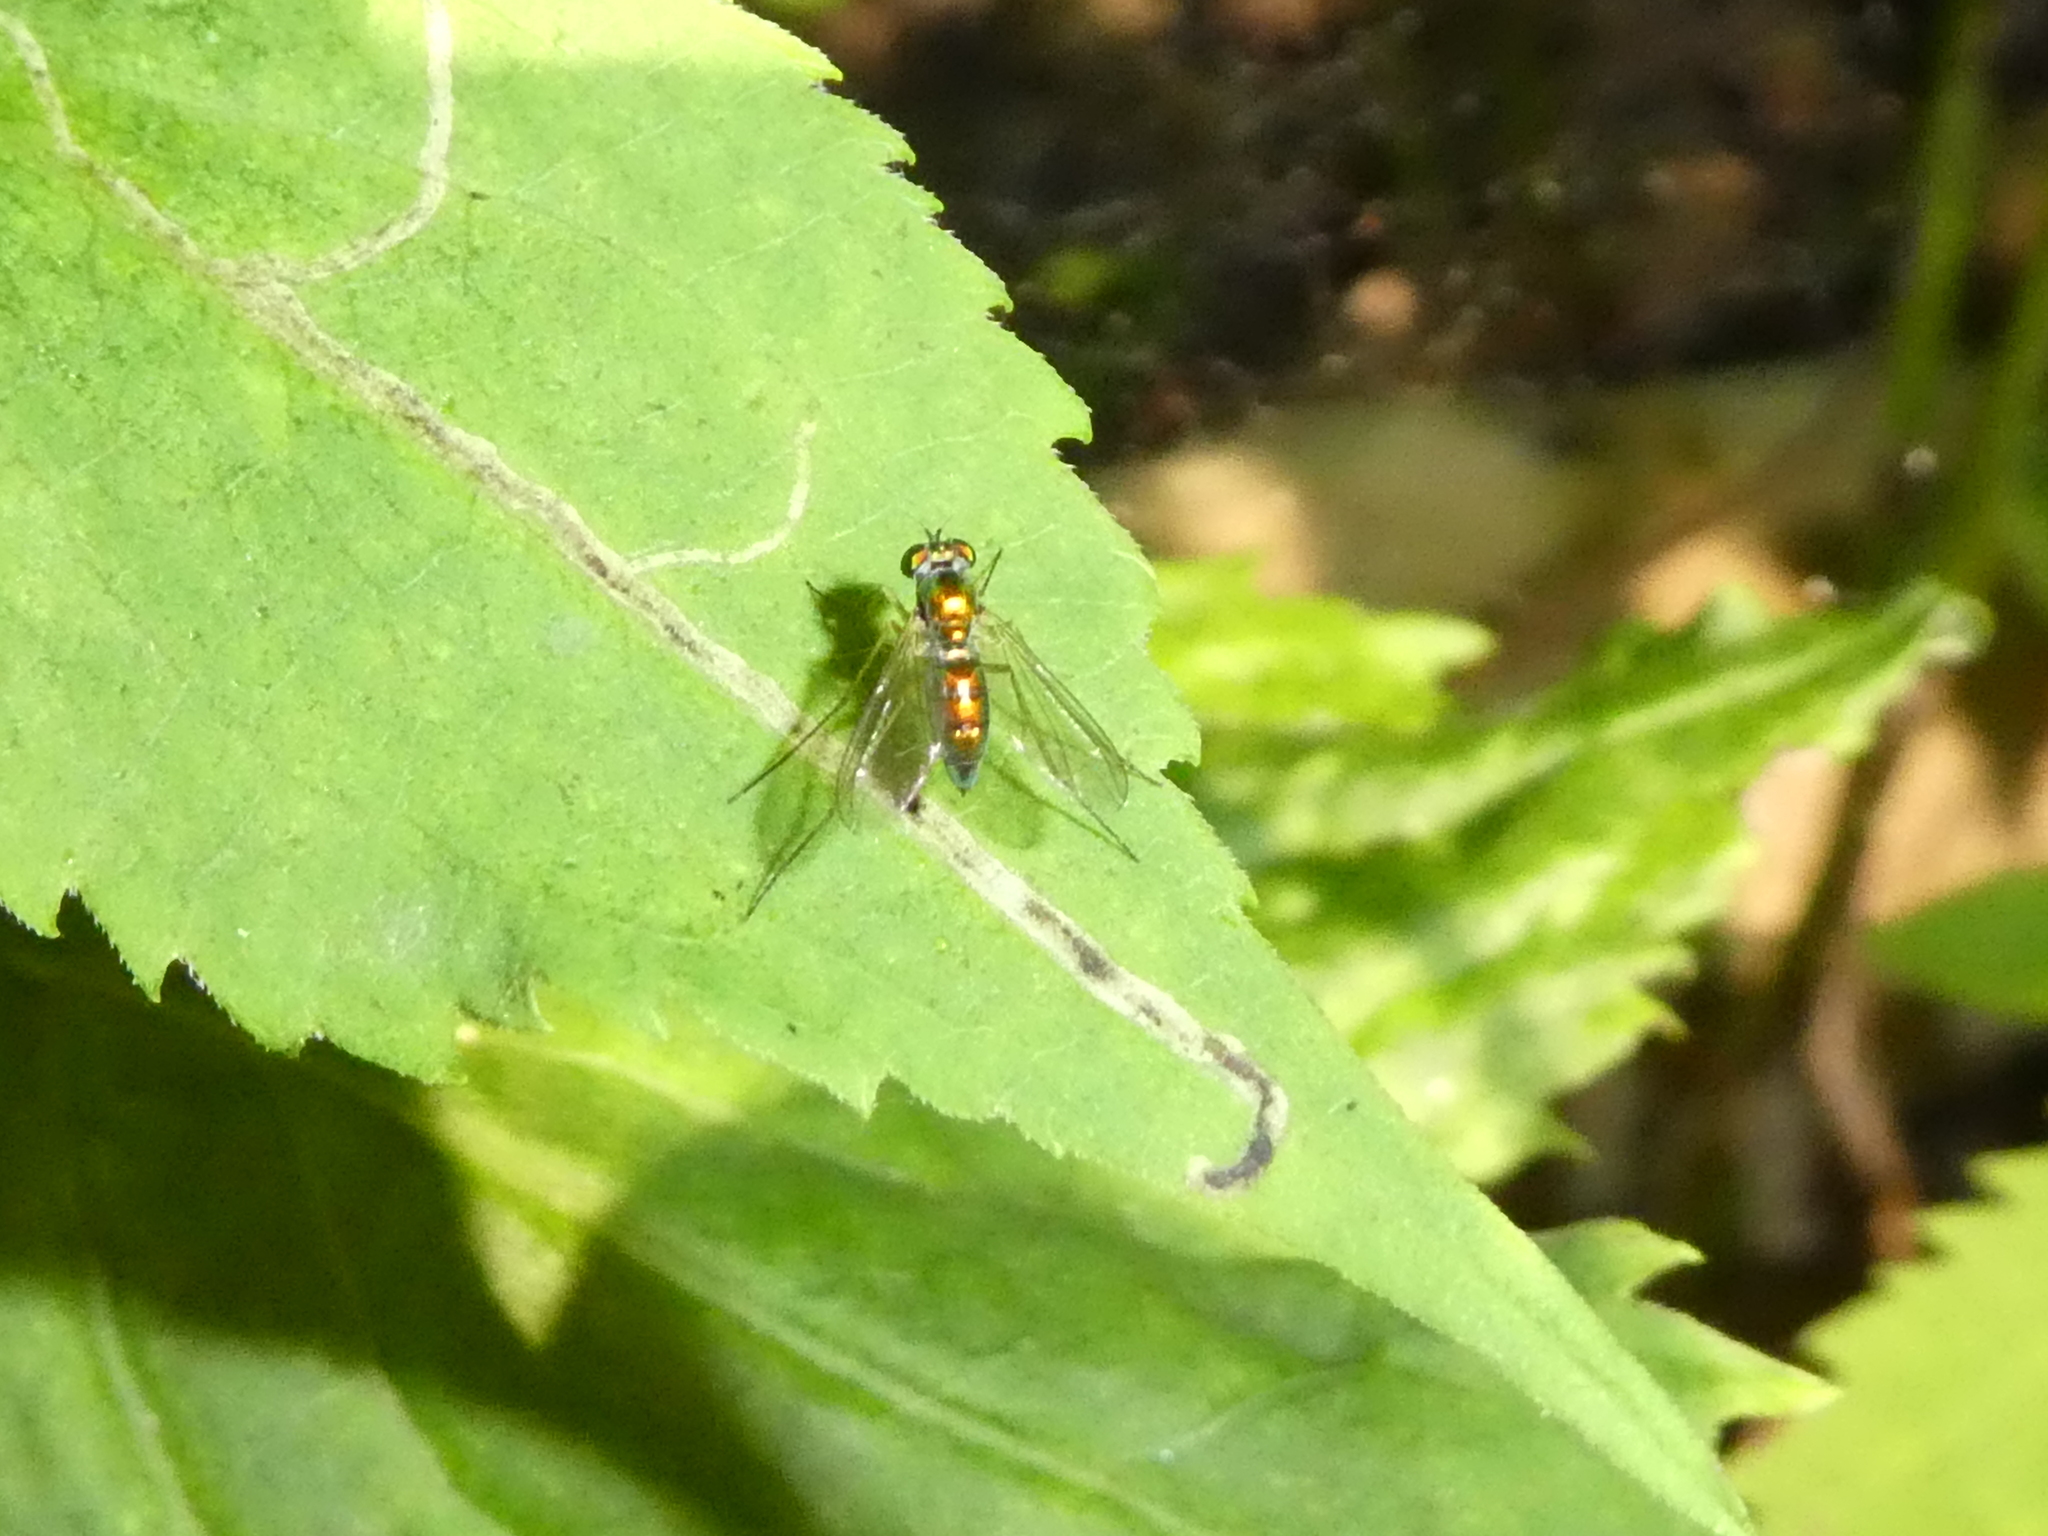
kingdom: Animalia
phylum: Arthropoda
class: Insecta
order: Diptera
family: Dolichopodidae
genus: Amblypsilopus
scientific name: Amblypsilopus scintillans
